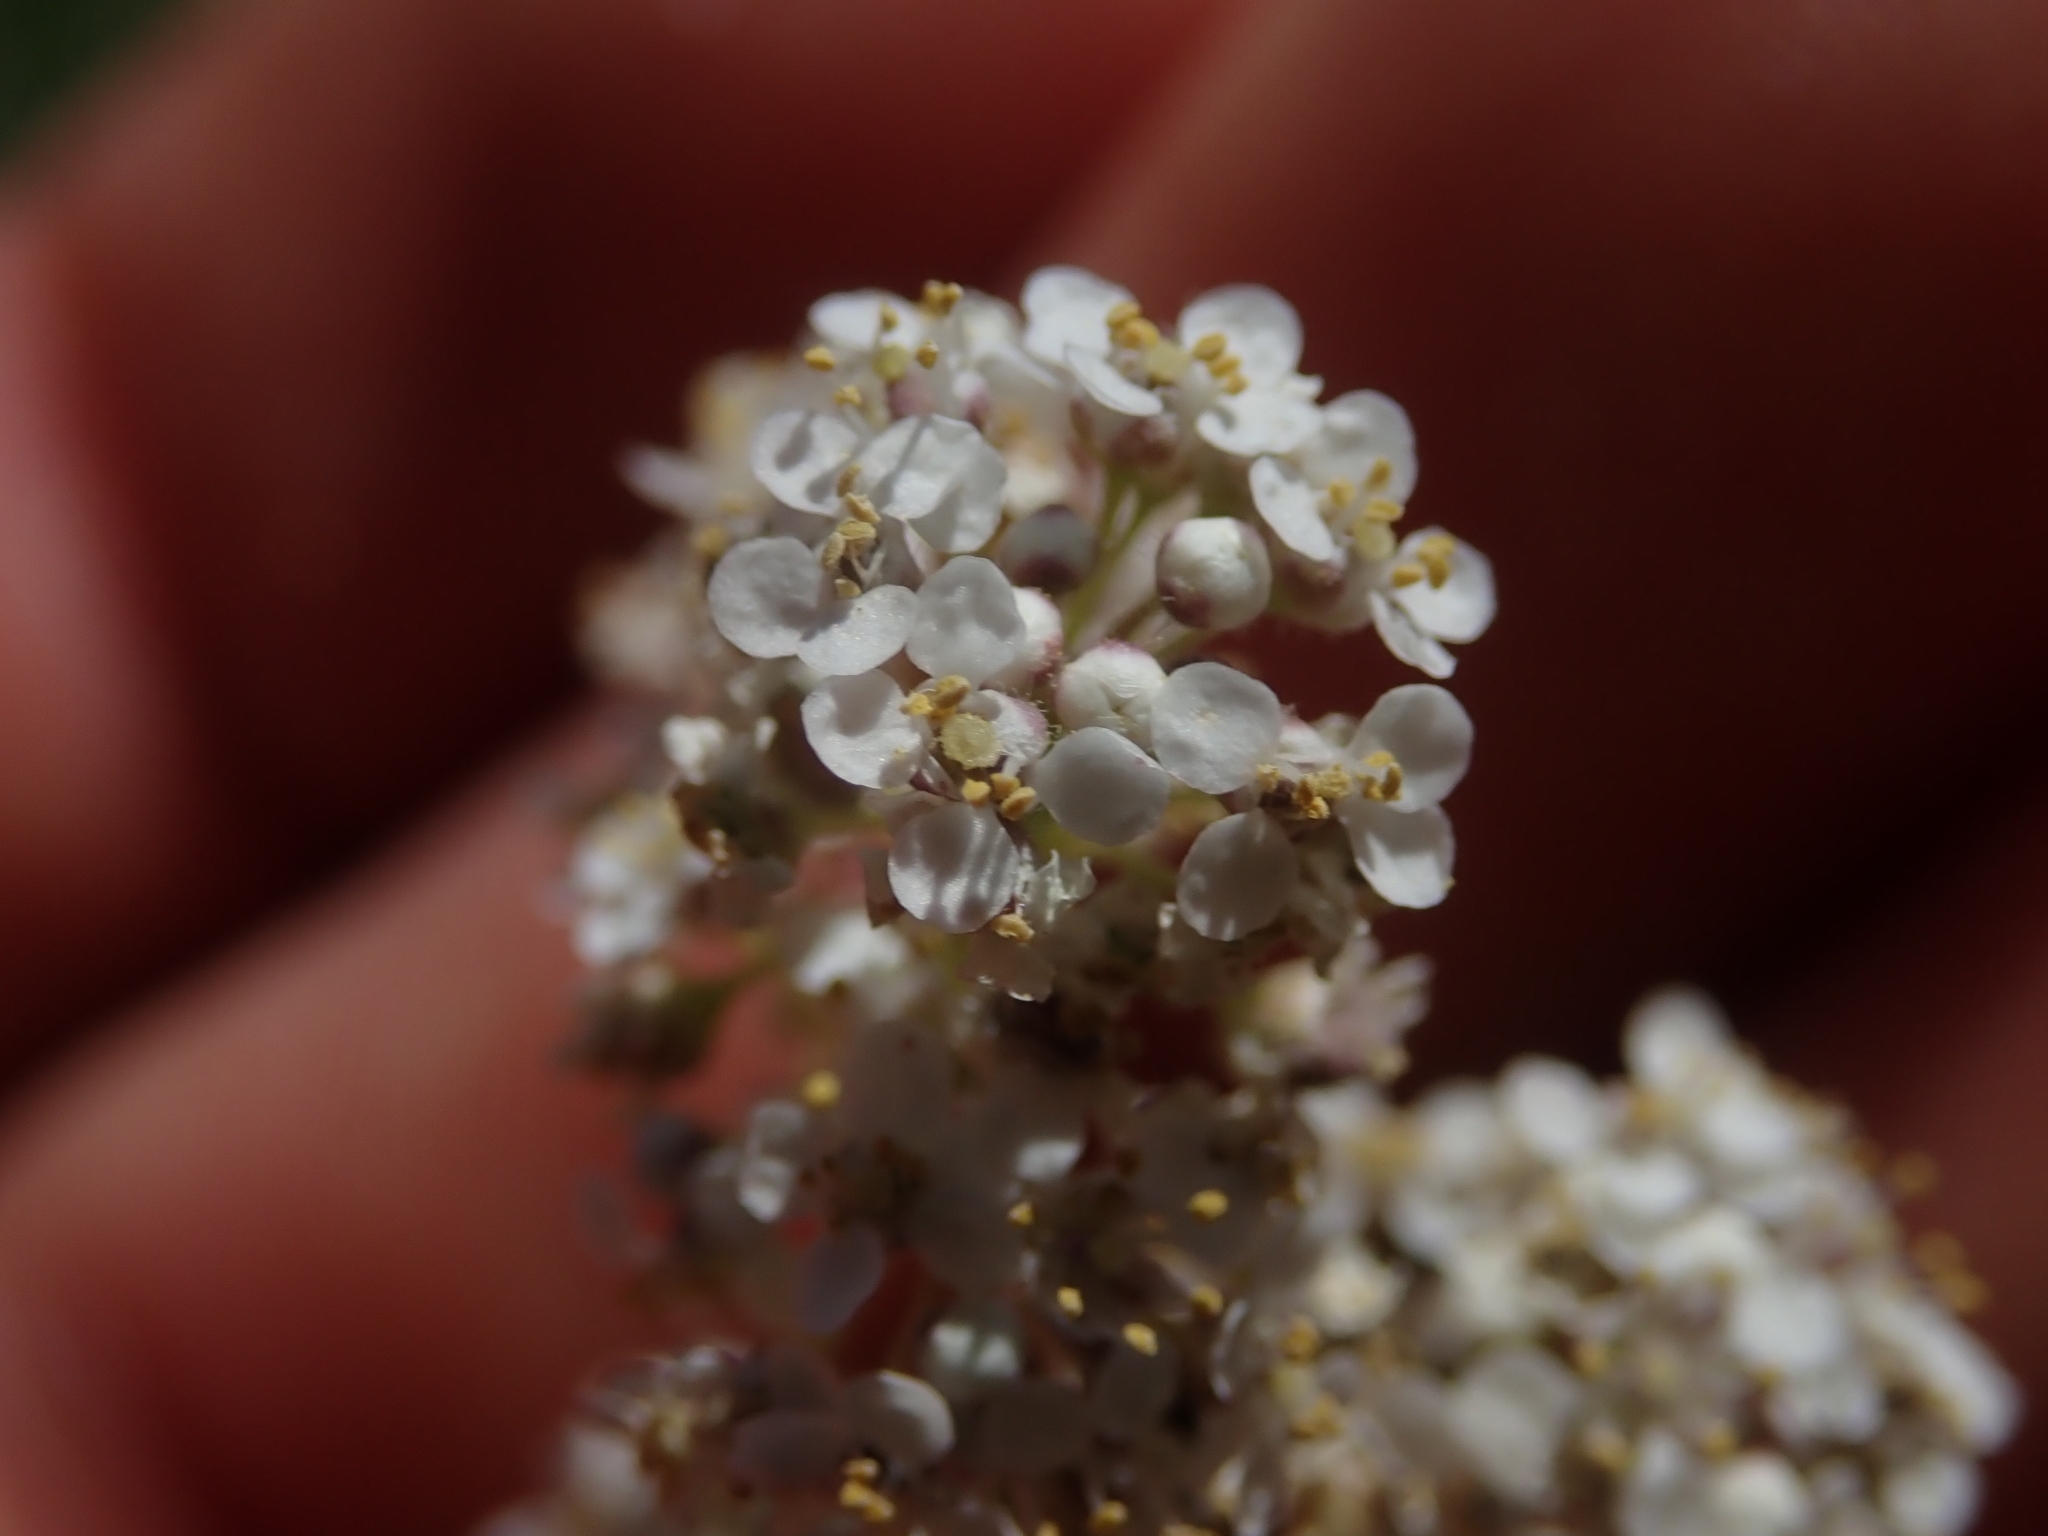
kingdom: Plantae
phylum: Tracheophyta
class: Magnoliopsida
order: Brassicales
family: Brassicaceae
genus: Lepidium
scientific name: Lepidium latifolium
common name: Dittander
